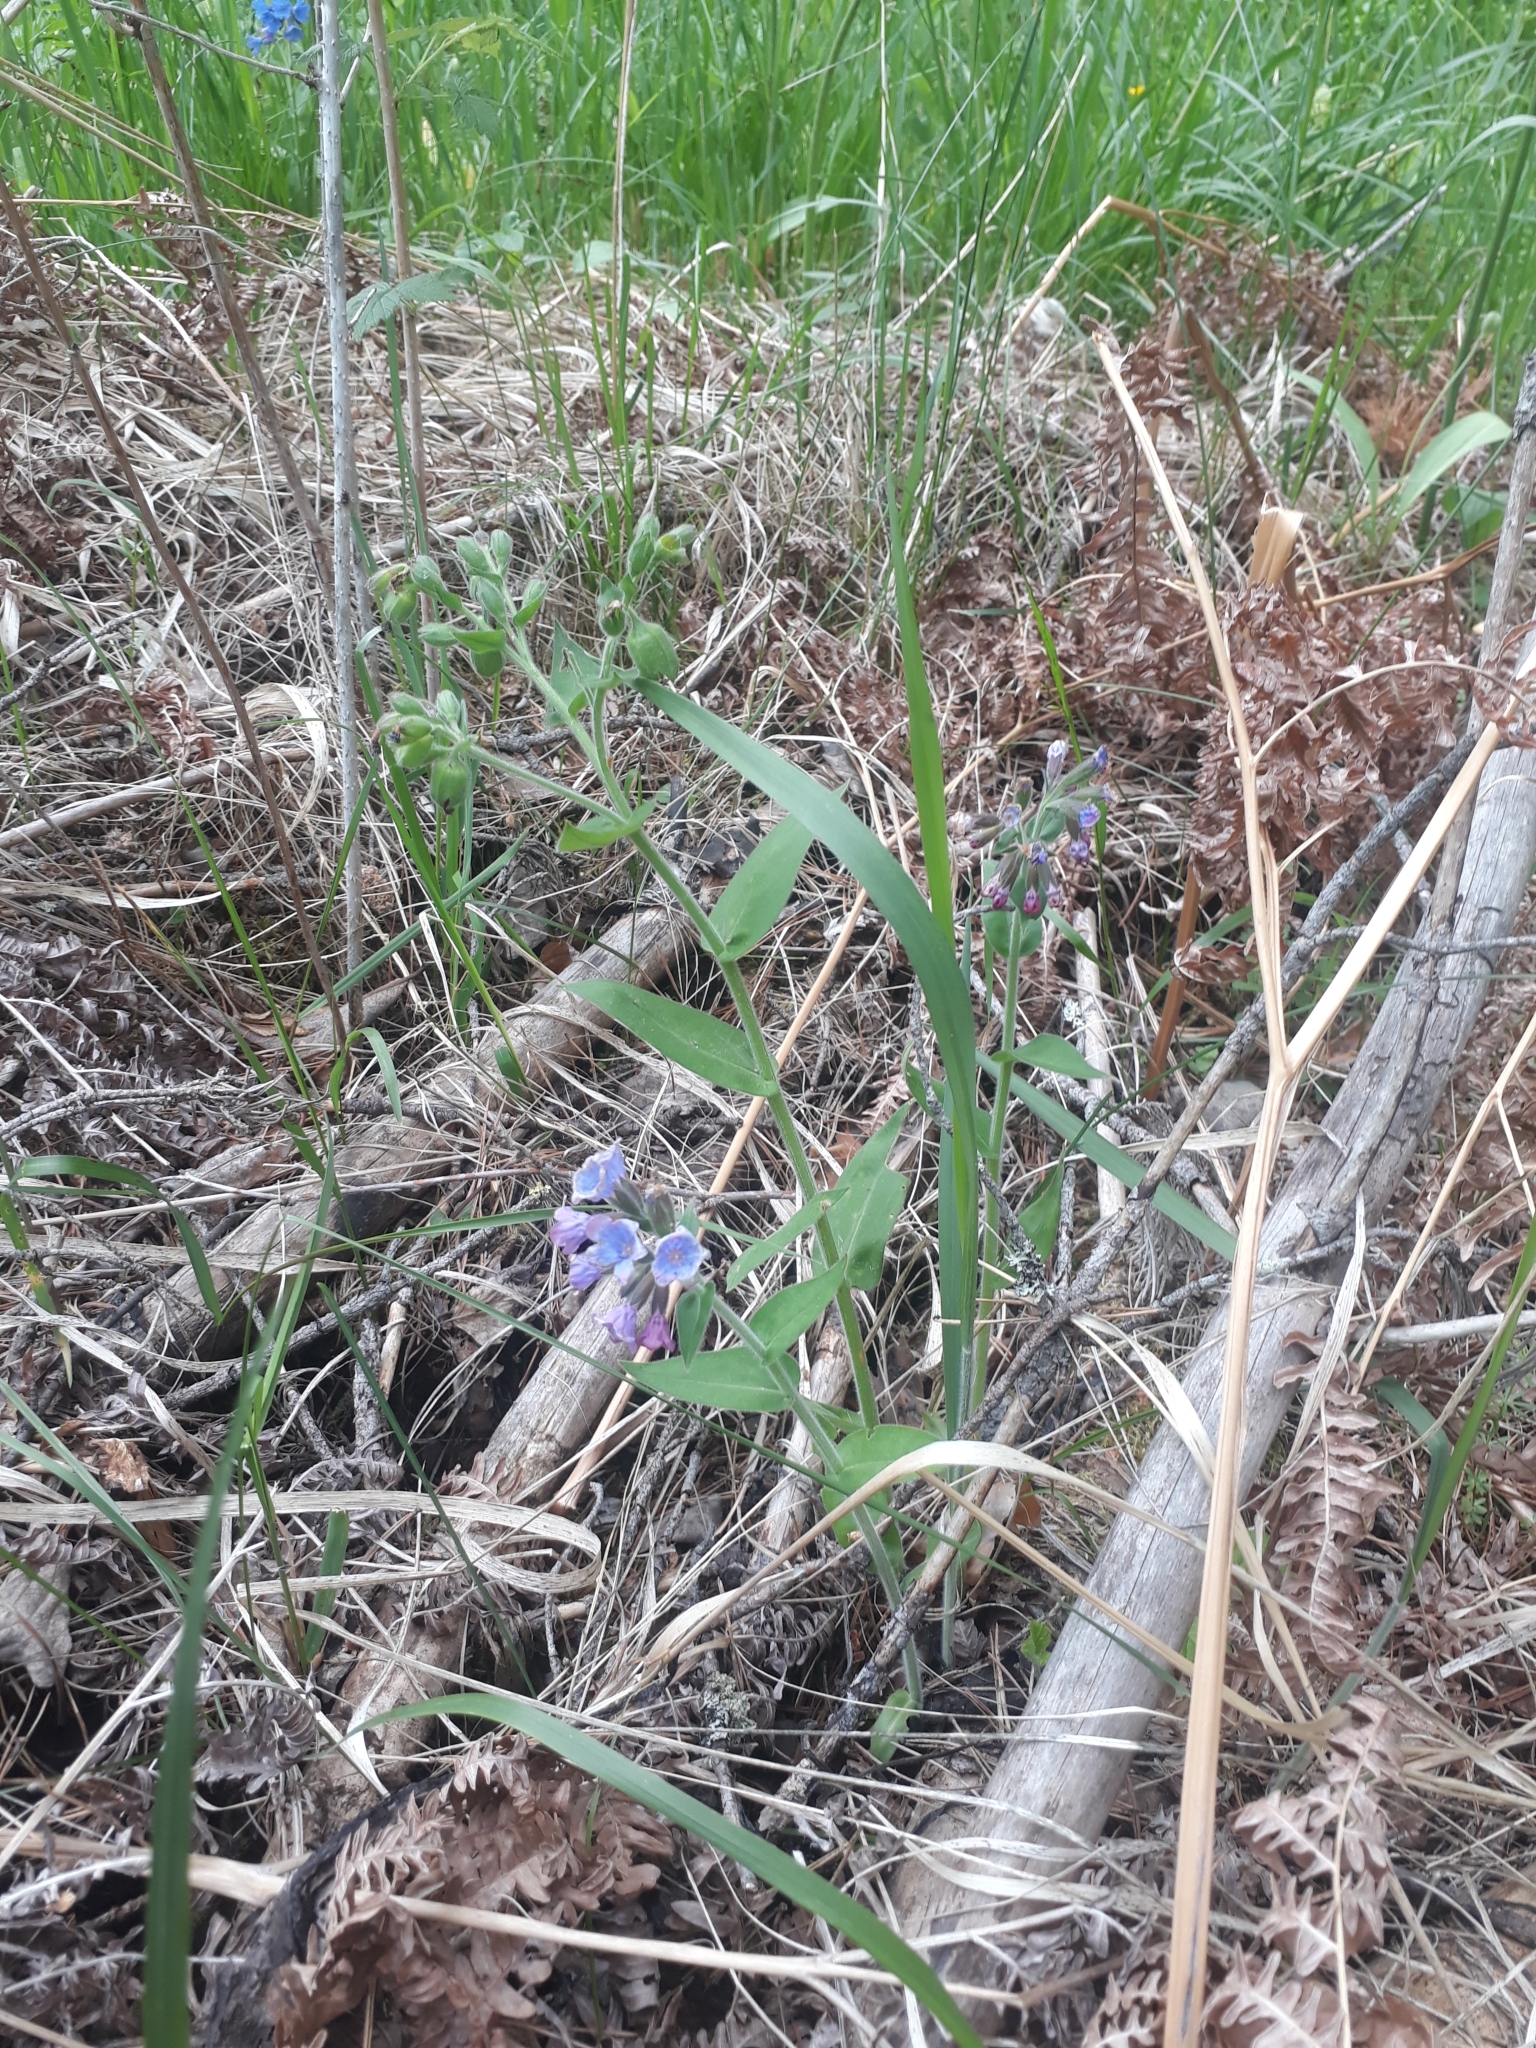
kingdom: Plantae
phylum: Tracheophyta
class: Magnoliopsida
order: Boraginales
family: Boraginaceae
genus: Pulmonaria
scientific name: Pulmonaria mollis
